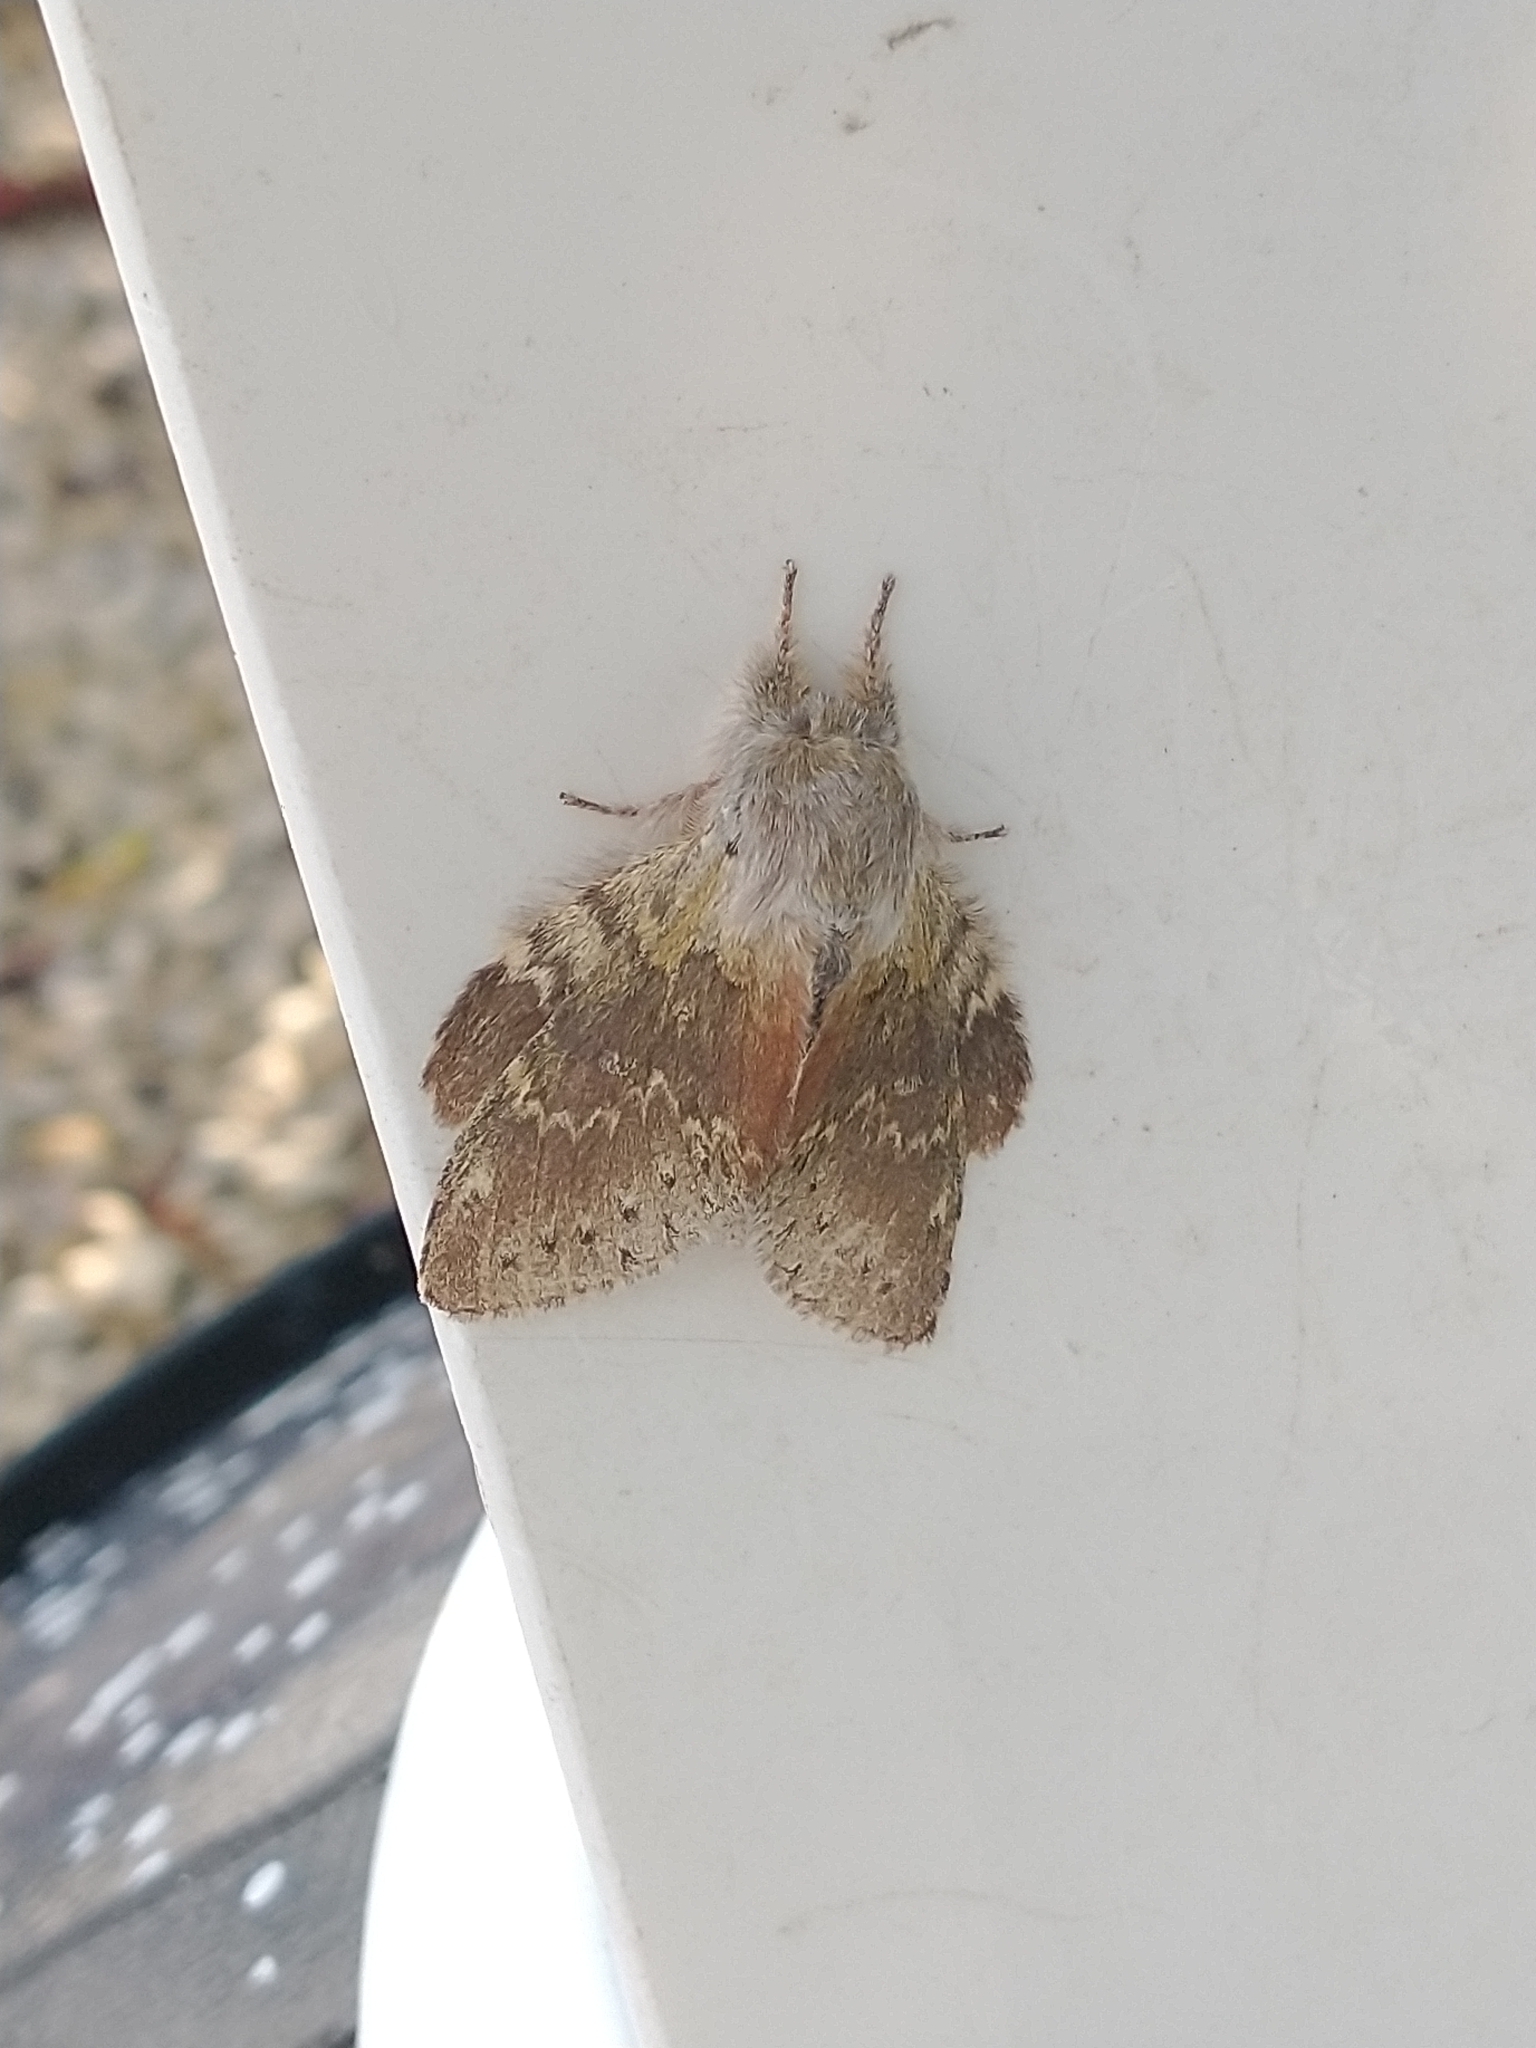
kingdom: Animalia
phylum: Arthropoda
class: Insecta
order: Lepidoptera
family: Notodontidae
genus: Stauropus
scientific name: Stauropus fagi
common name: Lobster moth
